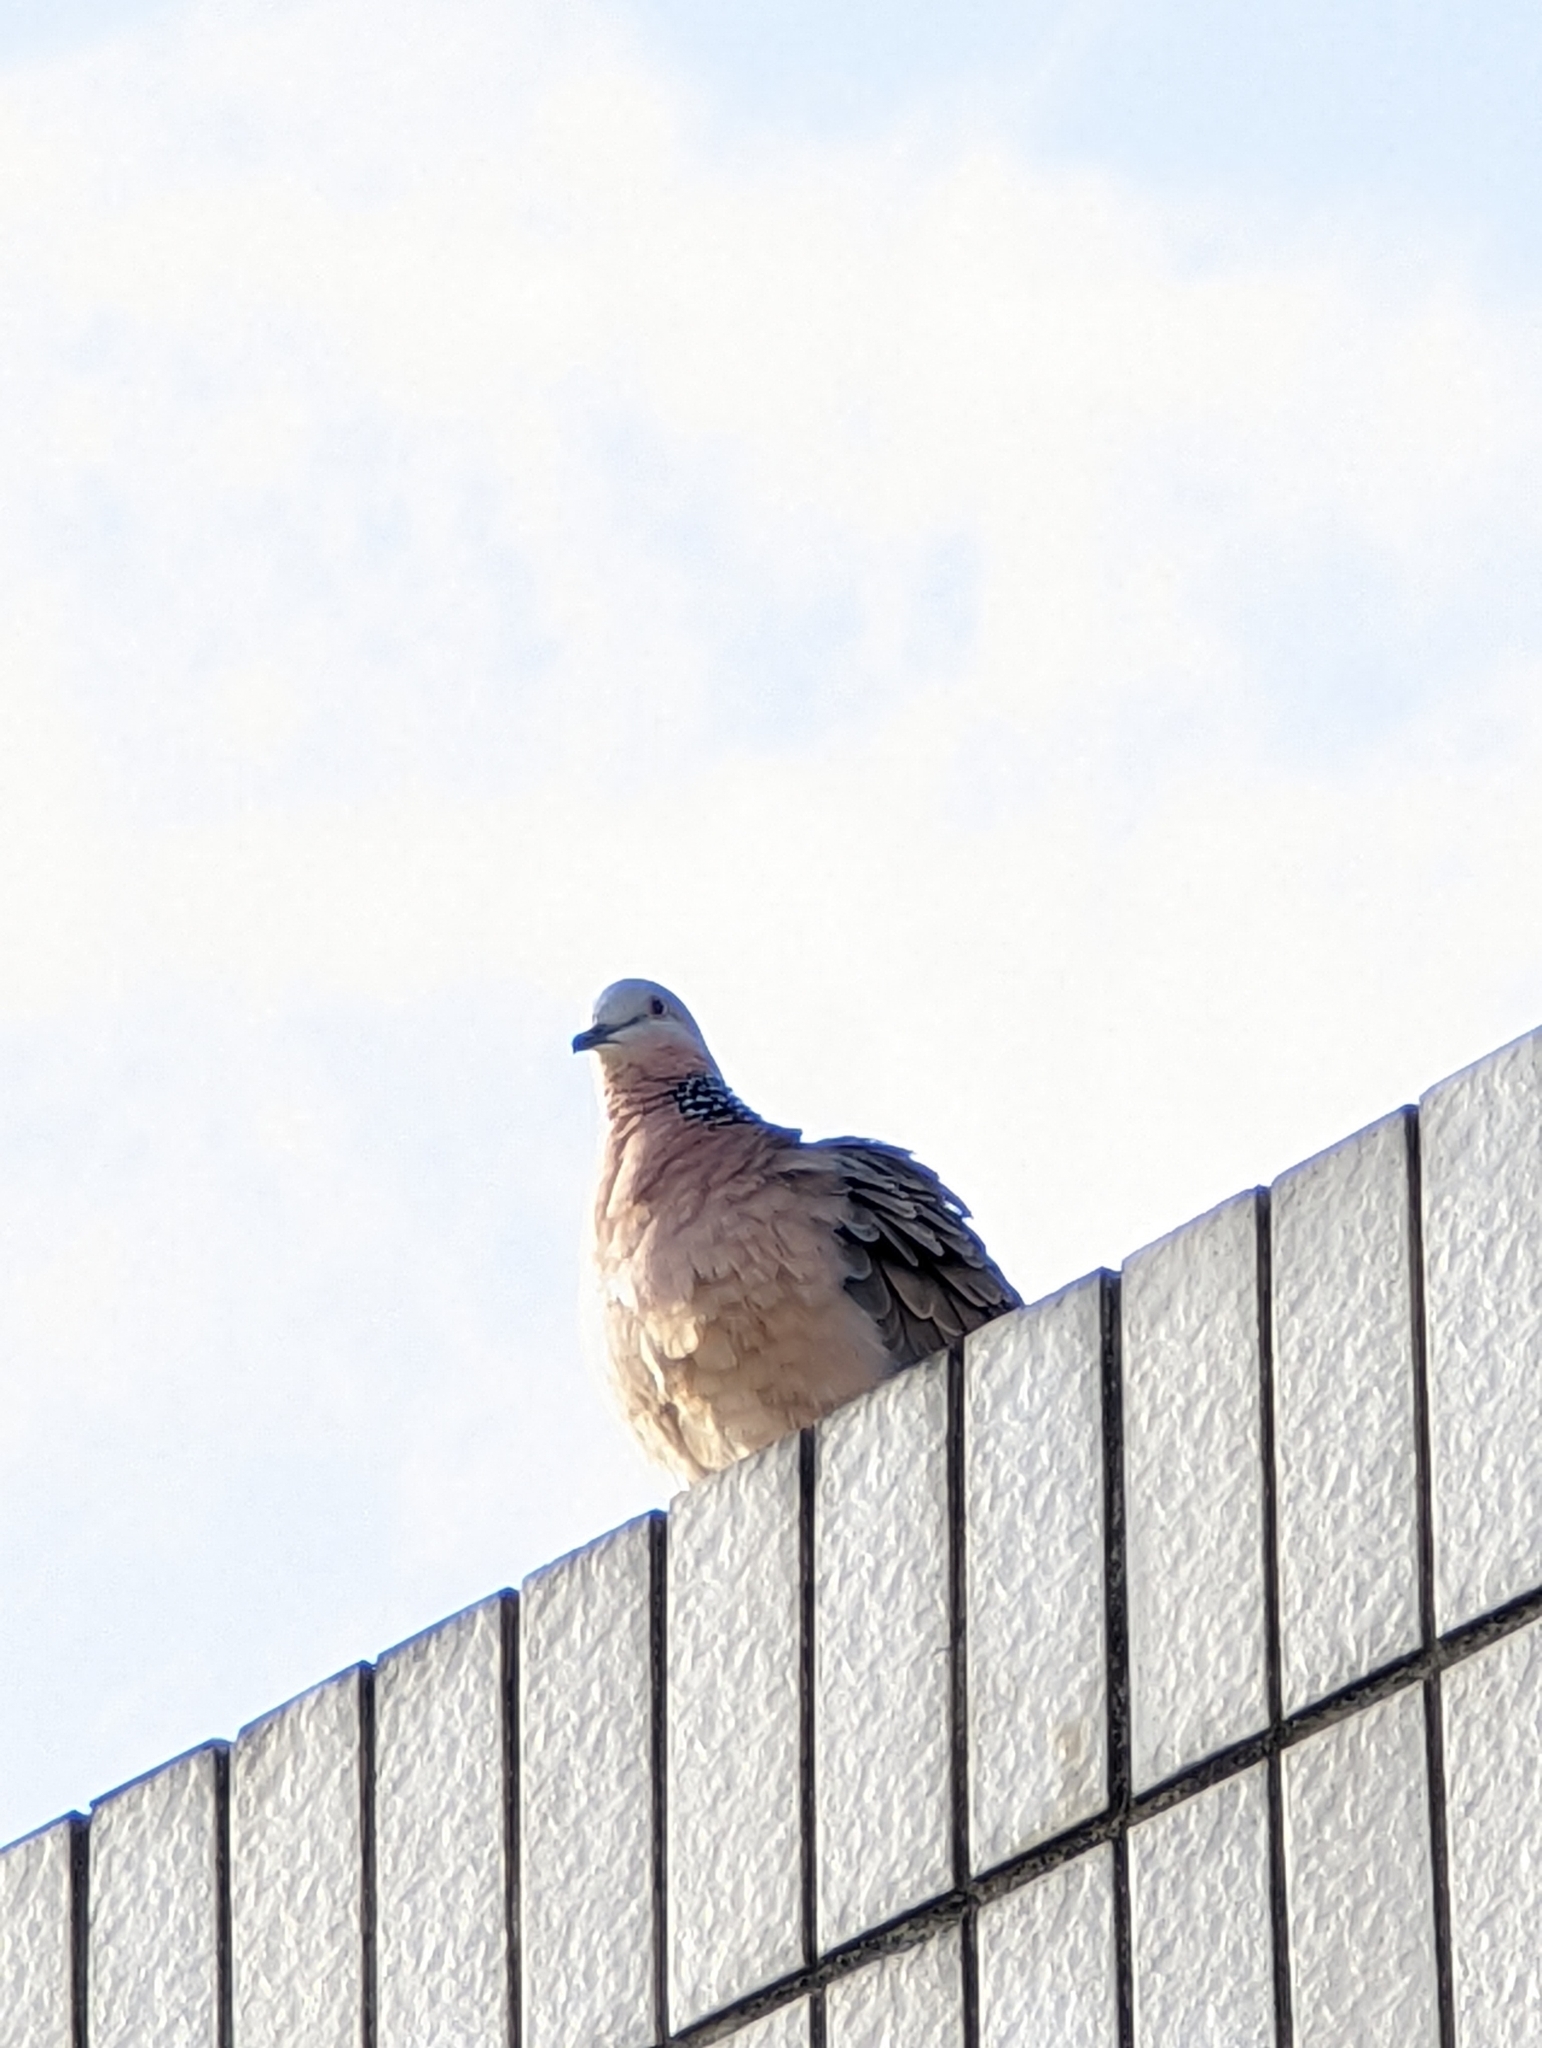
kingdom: Animalia
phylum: Chordata
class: Aves
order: Columbiformes
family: Columbidae
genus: Spilopelia
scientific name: Spilopelia chinensis
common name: Spotted dove
